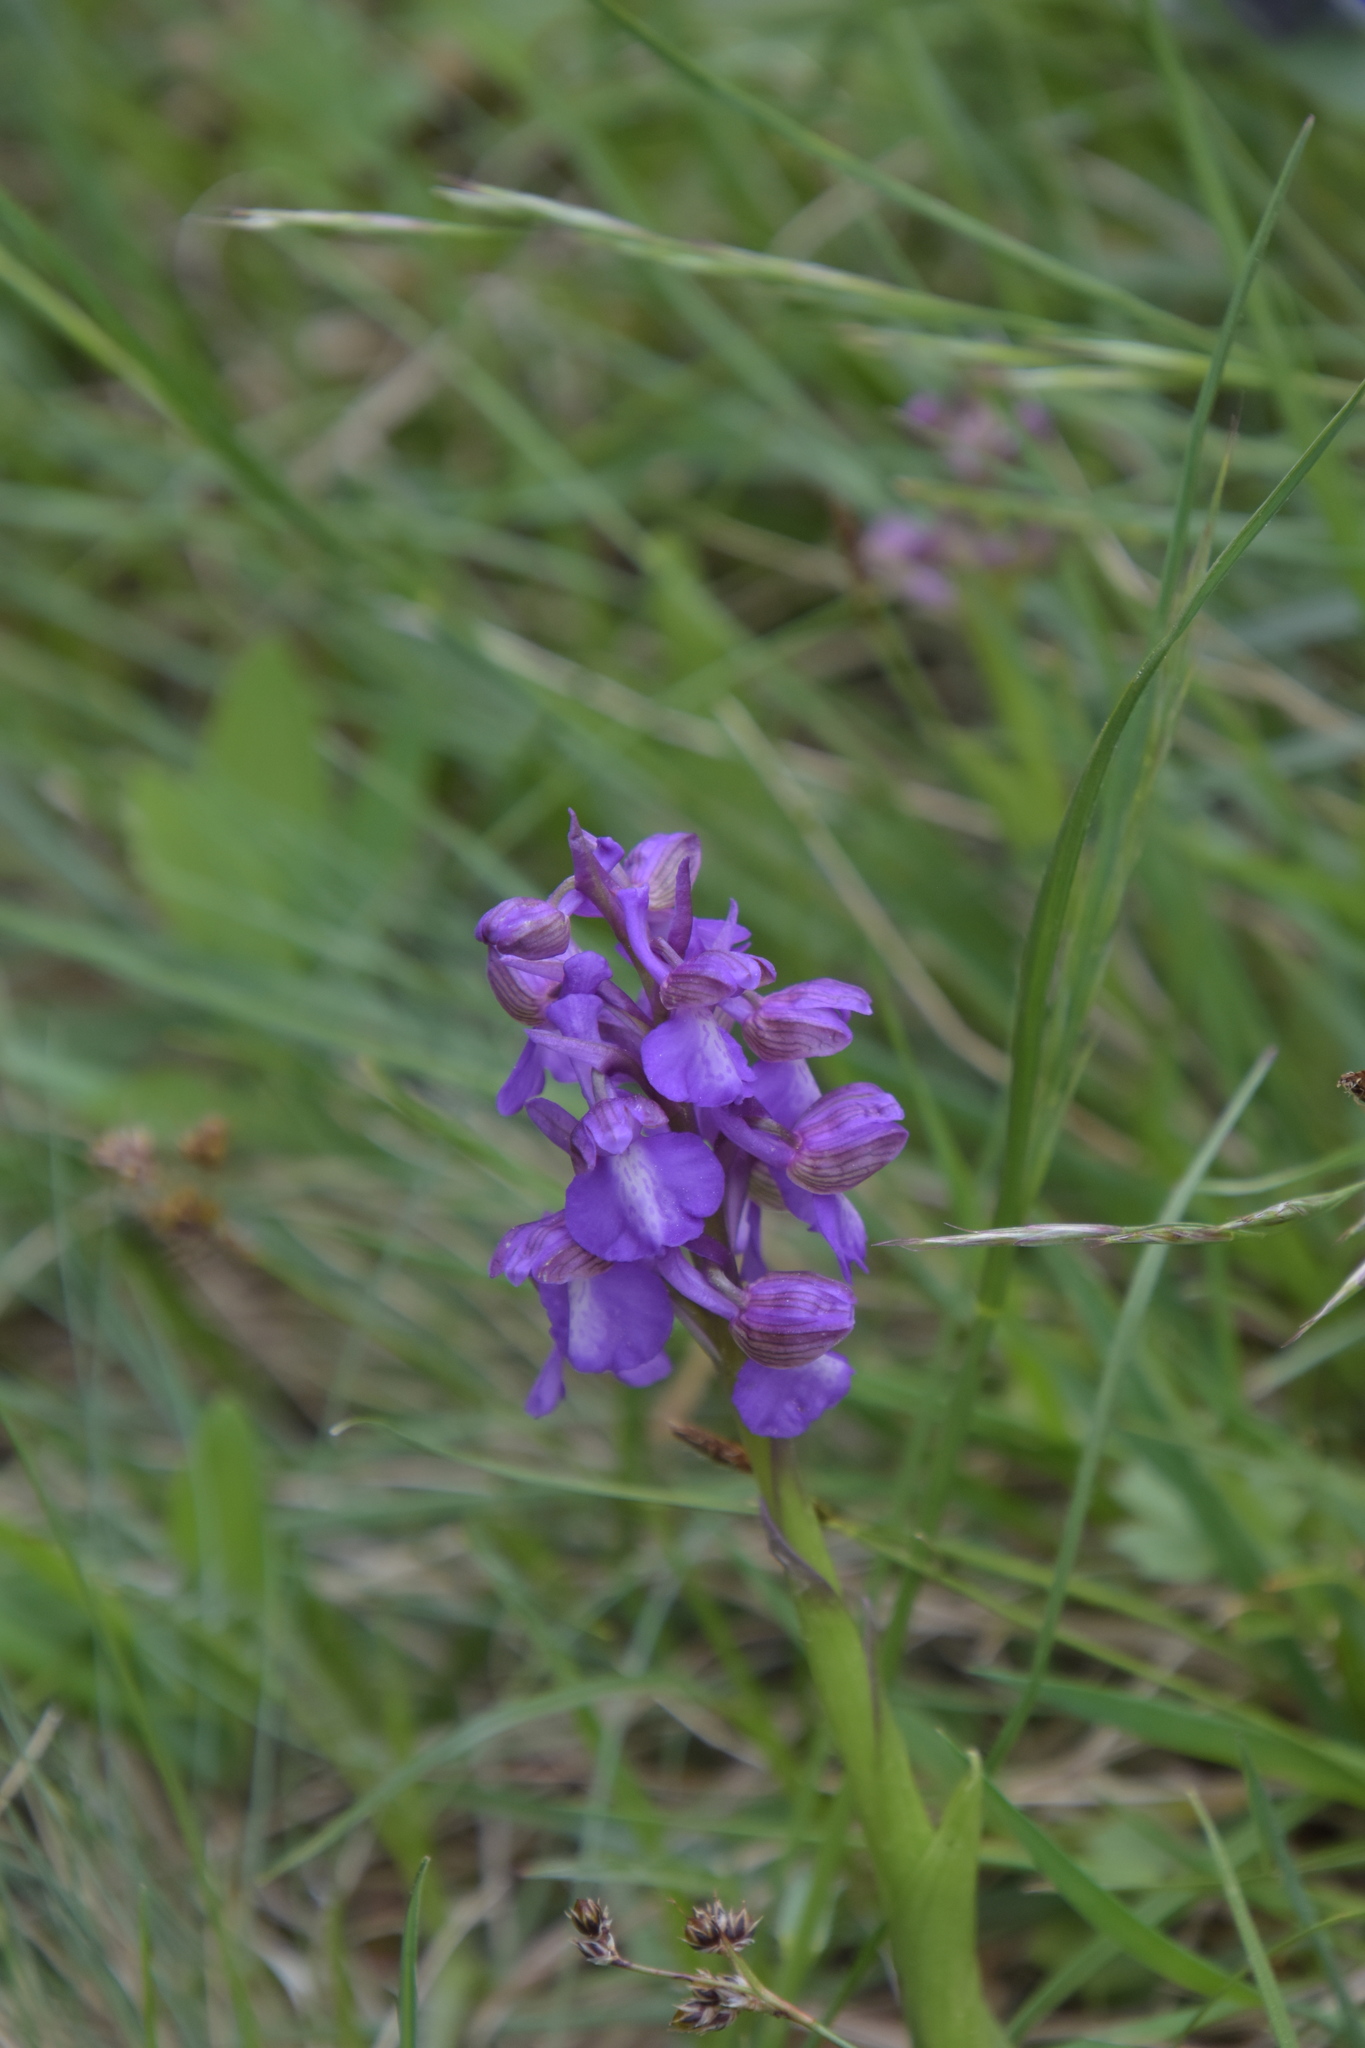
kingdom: Plantae
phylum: Tracheophyta
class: Liliopsida
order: Asparagales
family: Orchidaceae
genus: Anacamptis
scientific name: Anacamptis morio
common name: Green-winged orchid
